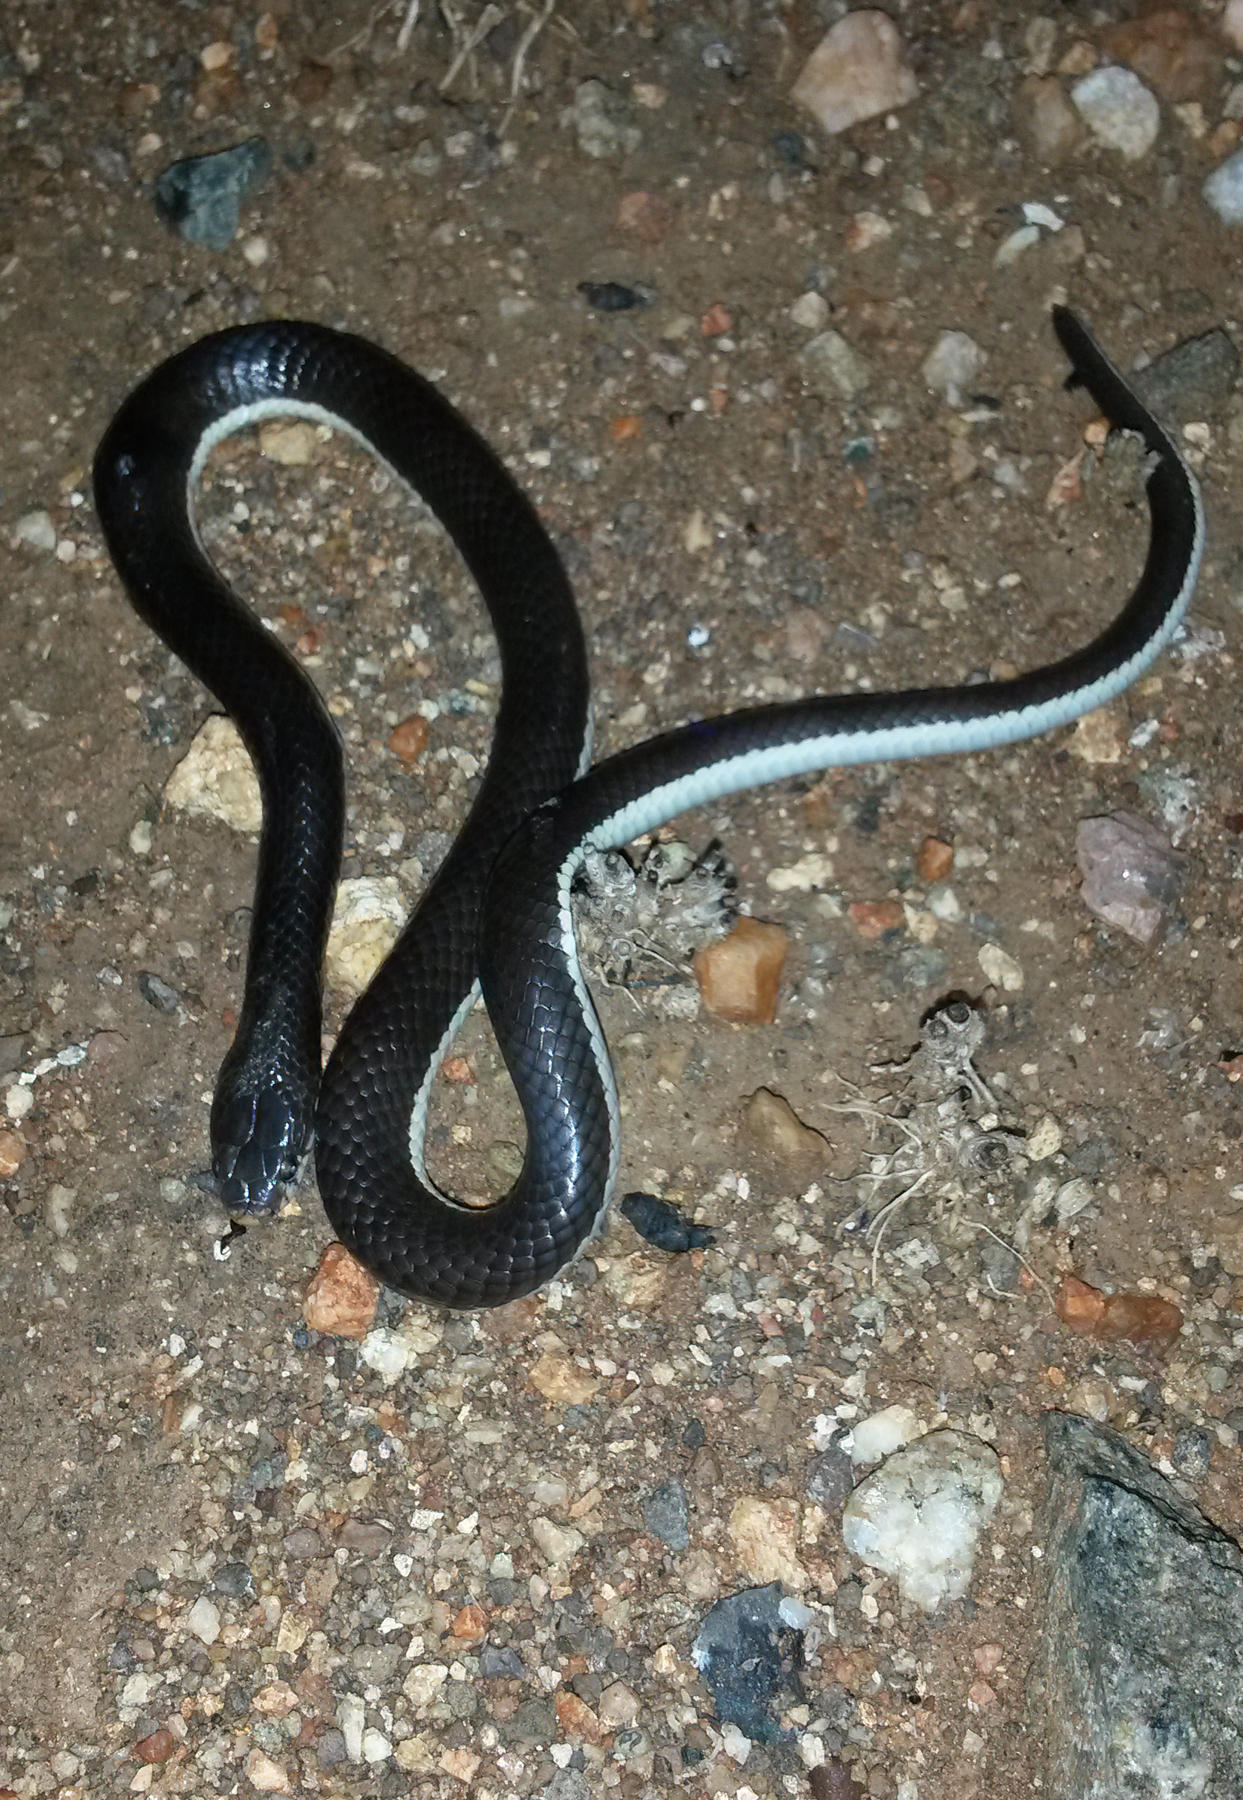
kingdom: Animalia
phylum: Chordata
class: Squamata
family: Elapidae
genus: Elapsoidea
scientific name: Elapsoidea sundevallii
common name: Sundevall's garter snake
